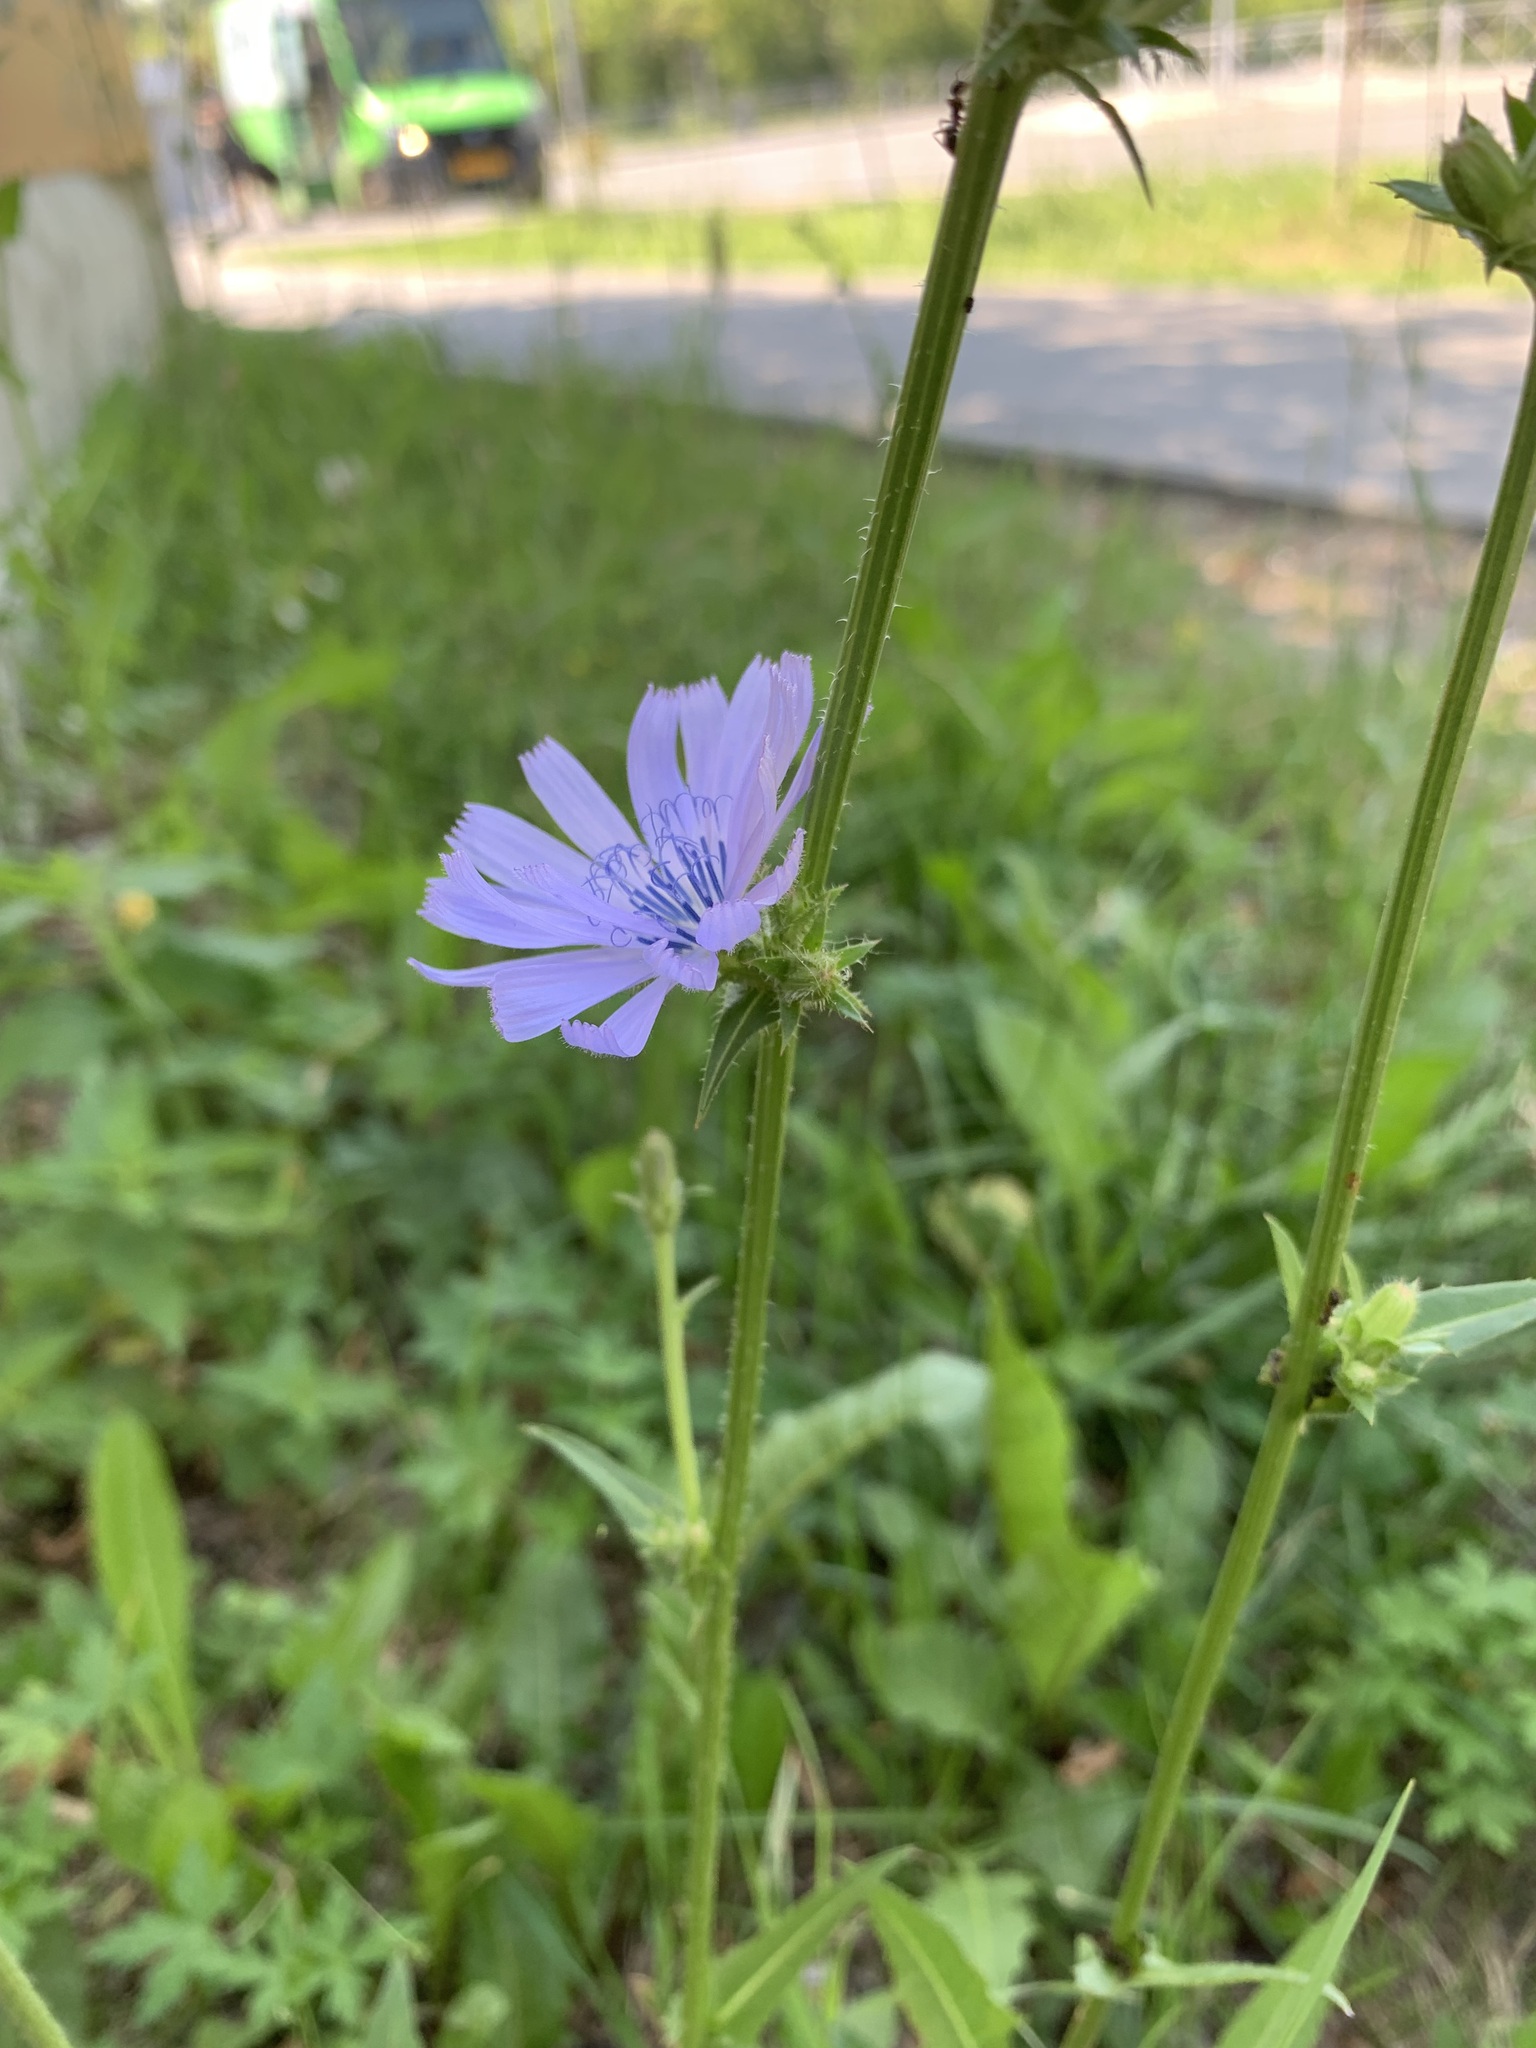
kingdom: Plantae
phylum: Tracheophyta
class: Magnoliopsida
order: Asterales
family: Asteraceae
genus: Cichorium
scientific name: Cichorium intybus
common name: Chicory
